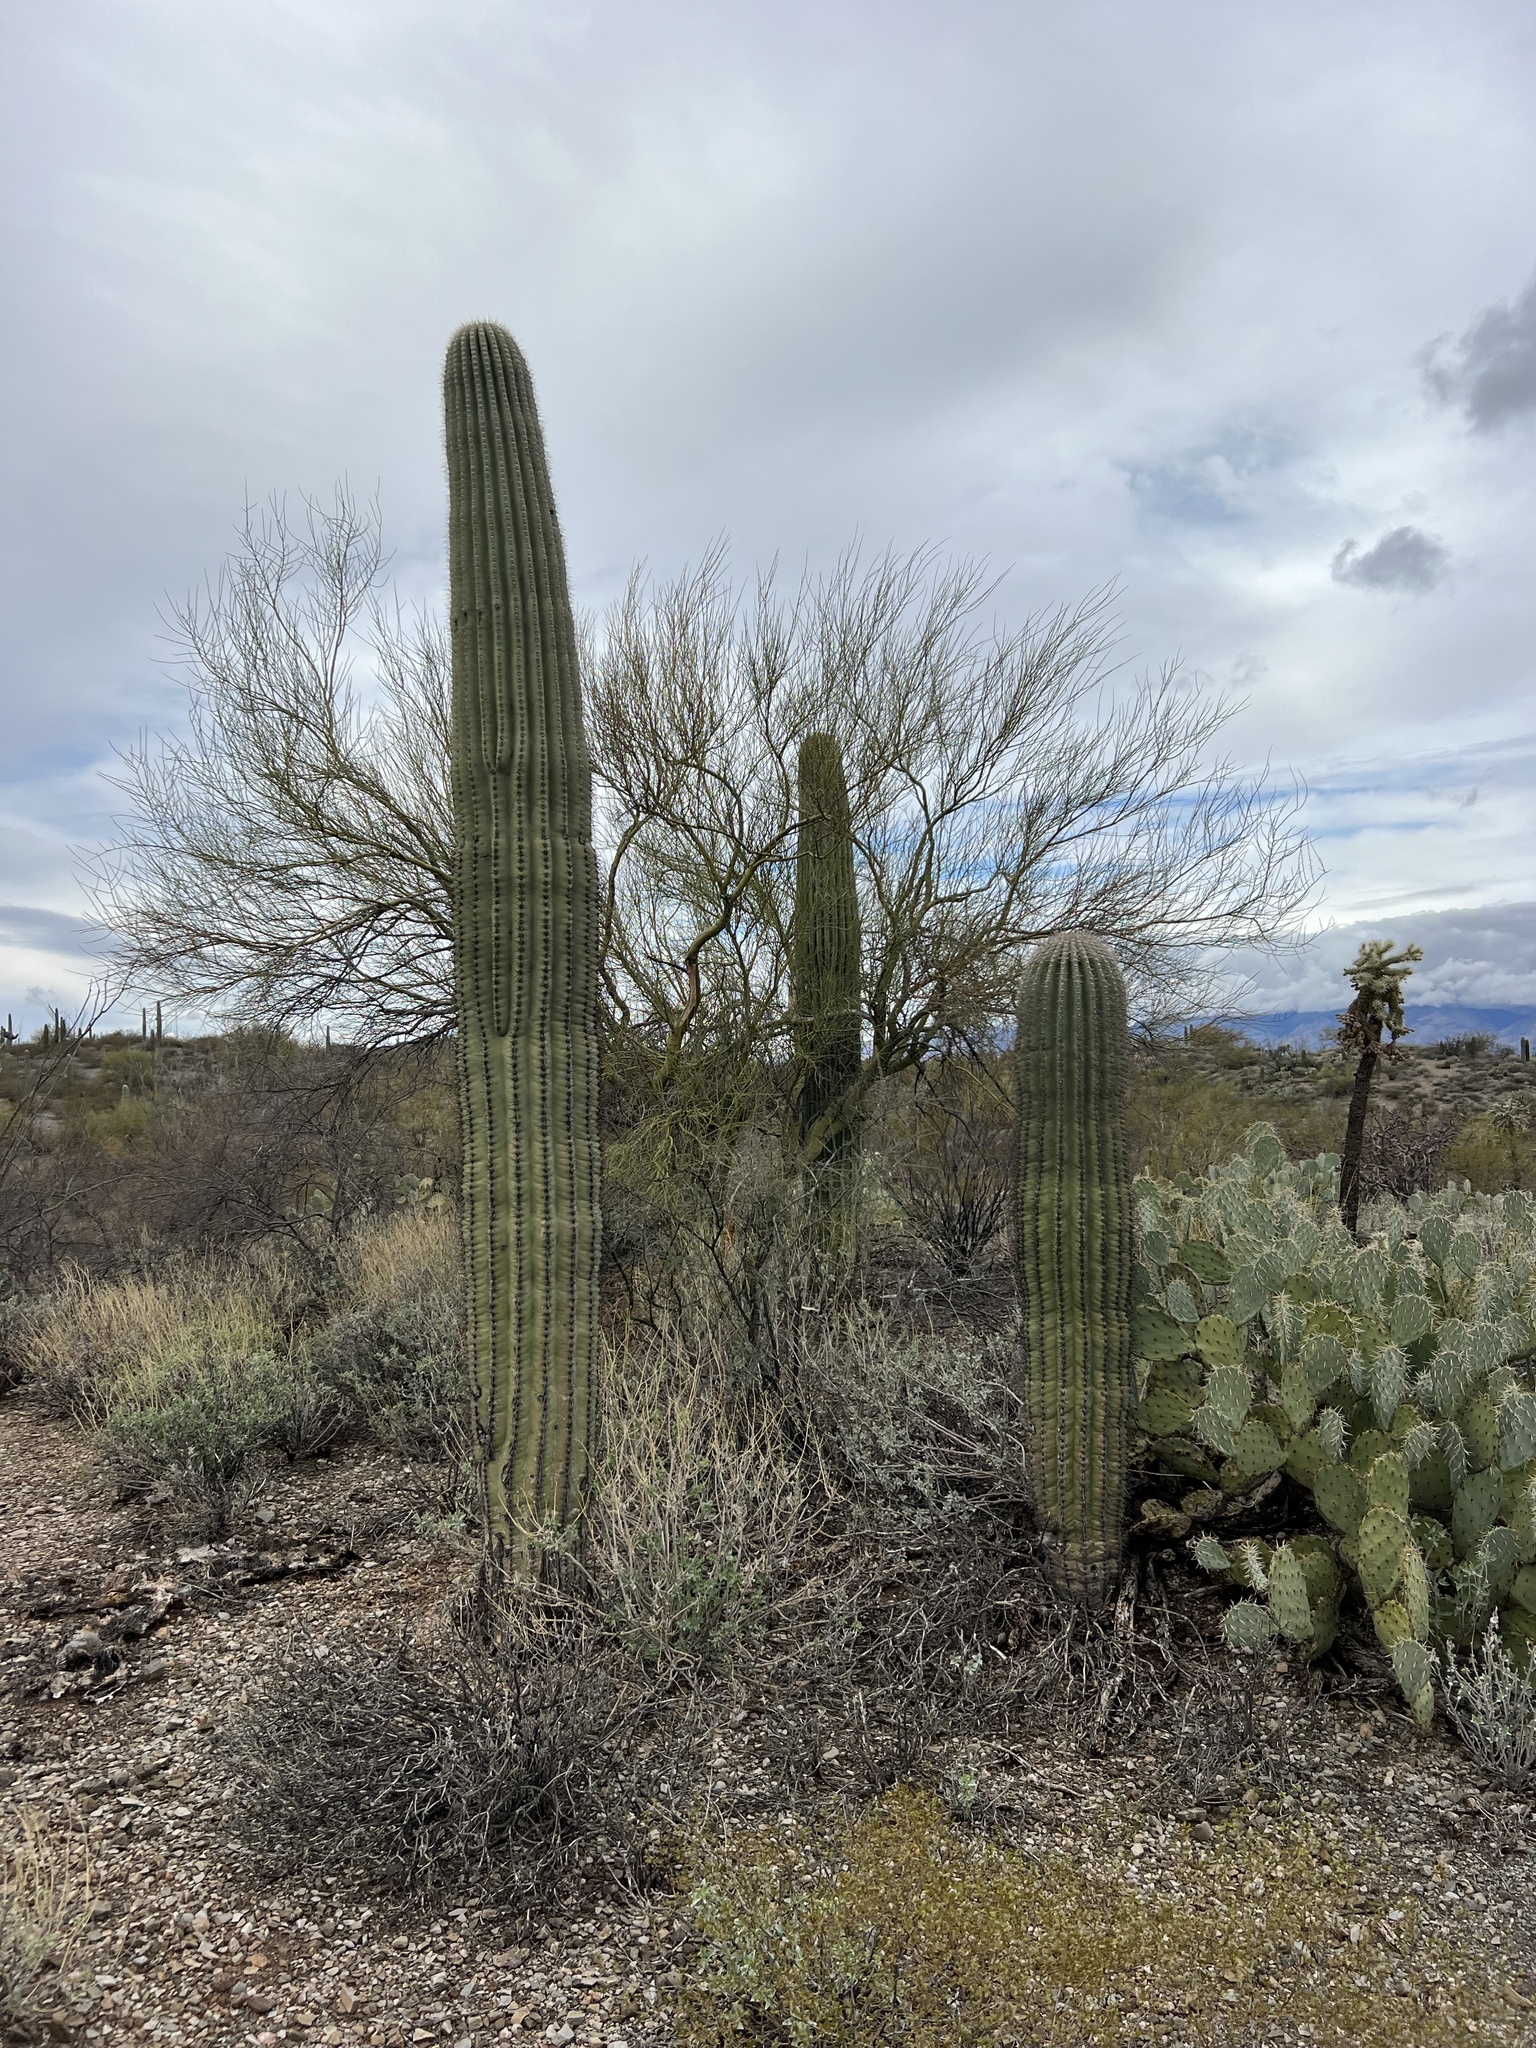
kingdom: Plantae
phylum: Tracheophyta
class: Magnoliopsida
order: Caryophyllales
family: Cactaceae
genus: Carnegiea
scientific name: Carnegiea gigantea
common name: Saguaro
